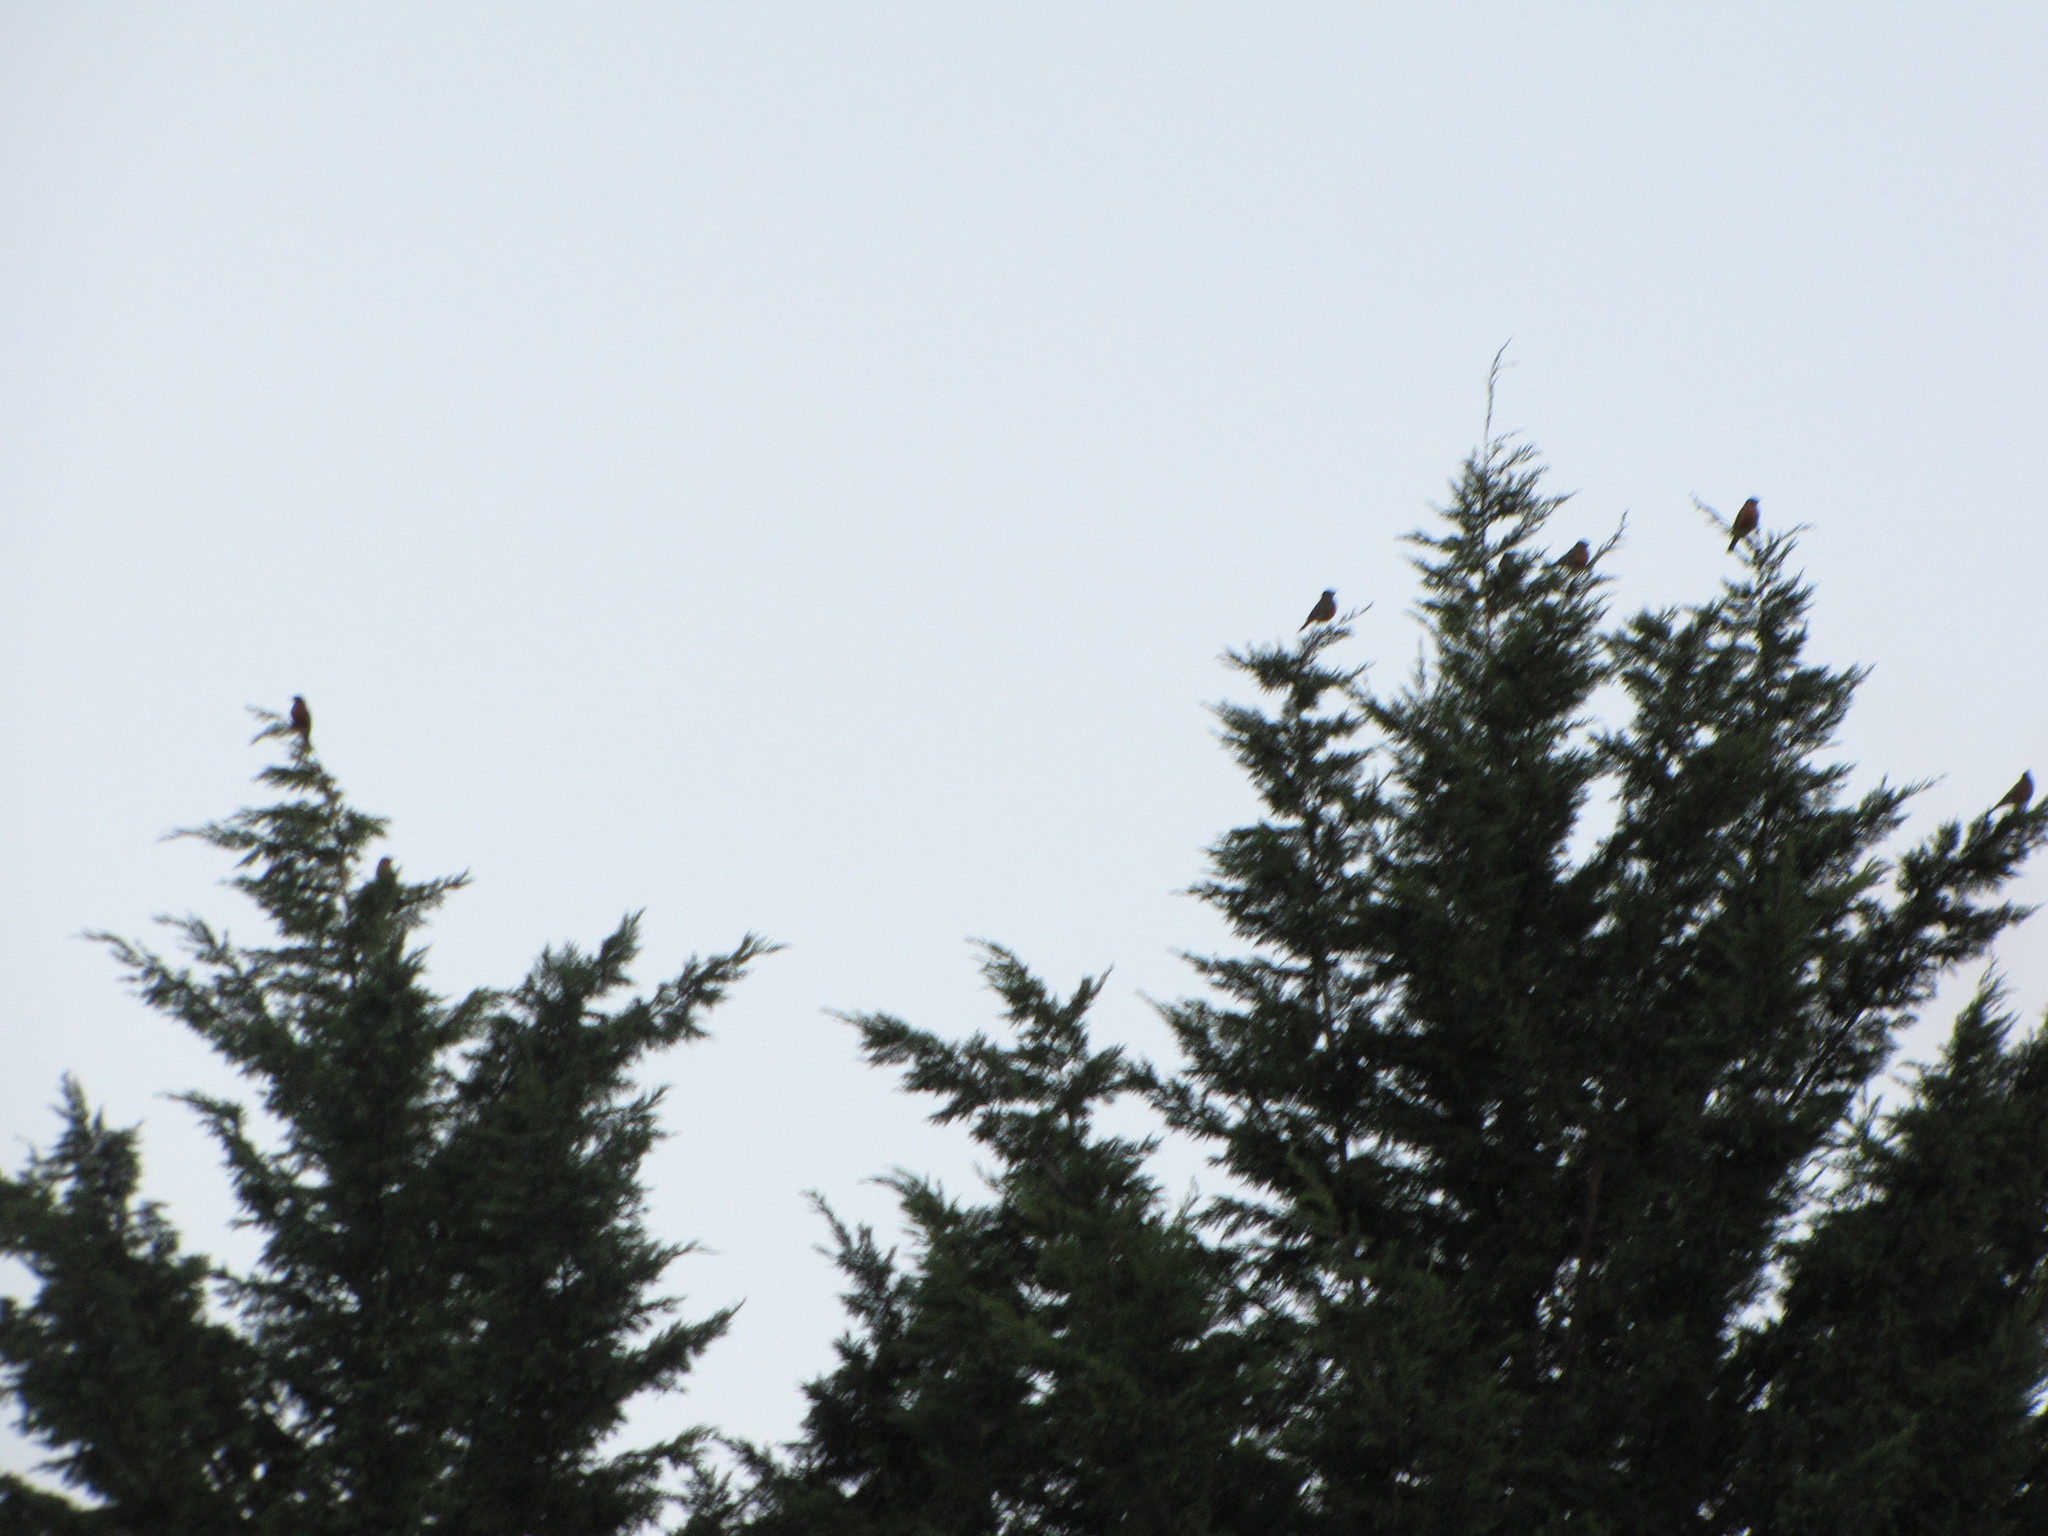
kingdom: Animalia
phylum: Chordata
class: Aves
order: Passeriformes
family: Turdidae
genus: Turdus
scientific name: Turdus migratorius
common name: American robin
